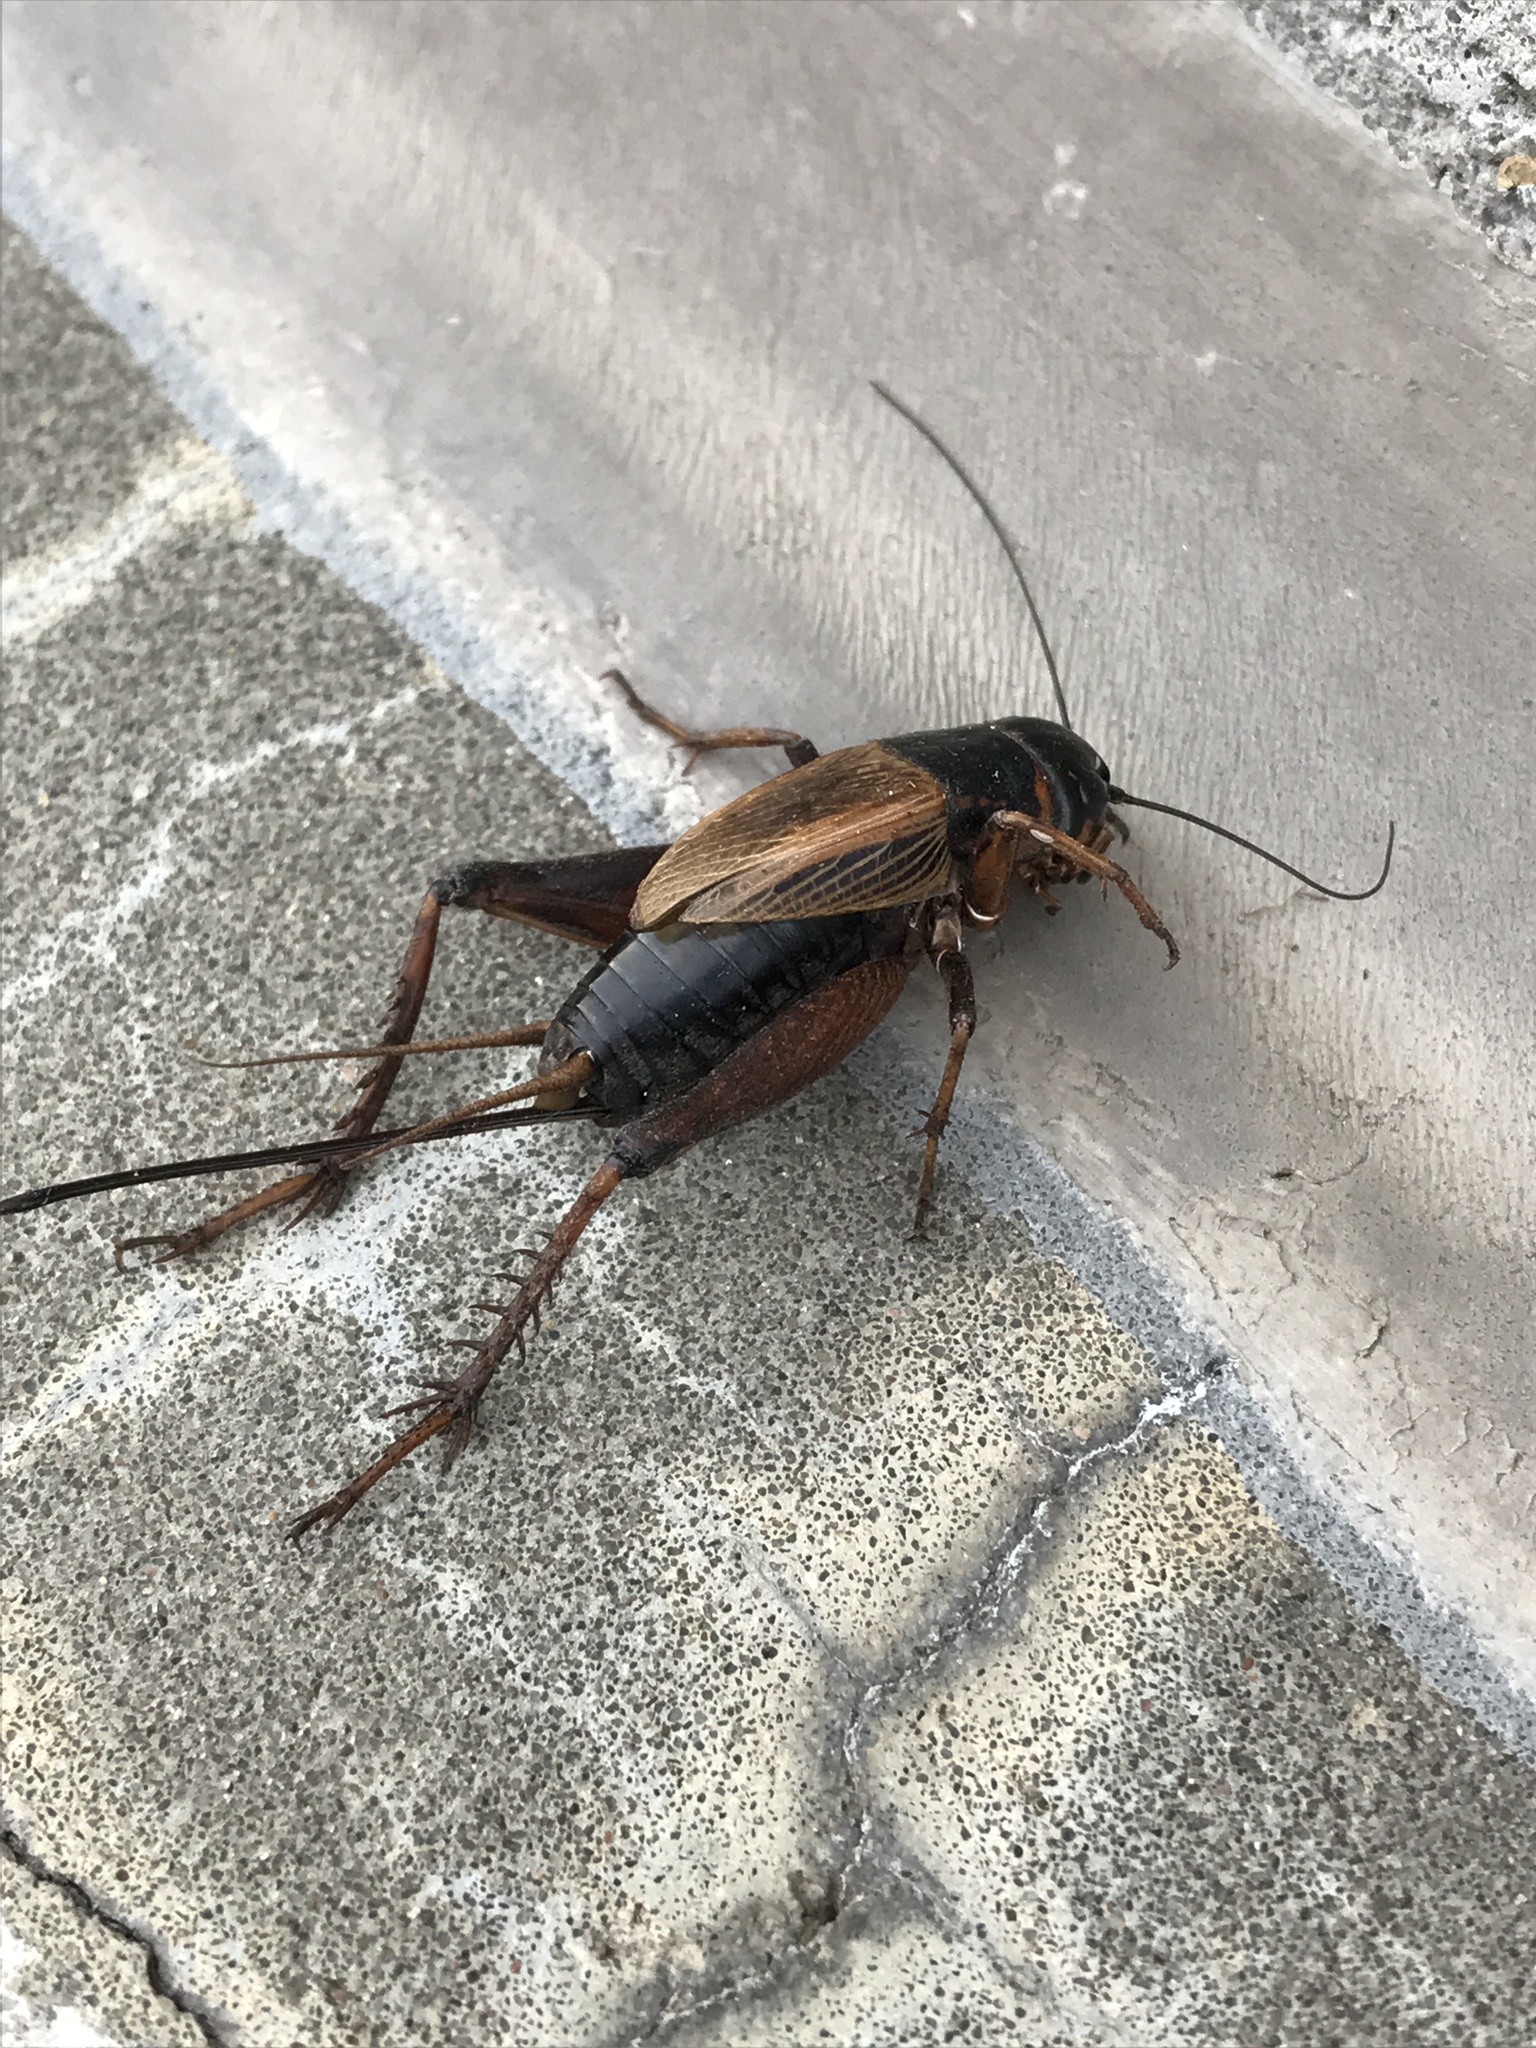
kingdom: Animalia
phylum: Arthropoda
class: Insecta
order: Orthoptera
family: Gryllidae
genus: Gryllus
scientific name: Gryllus pennsylvanicus
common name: Fall field cricket
